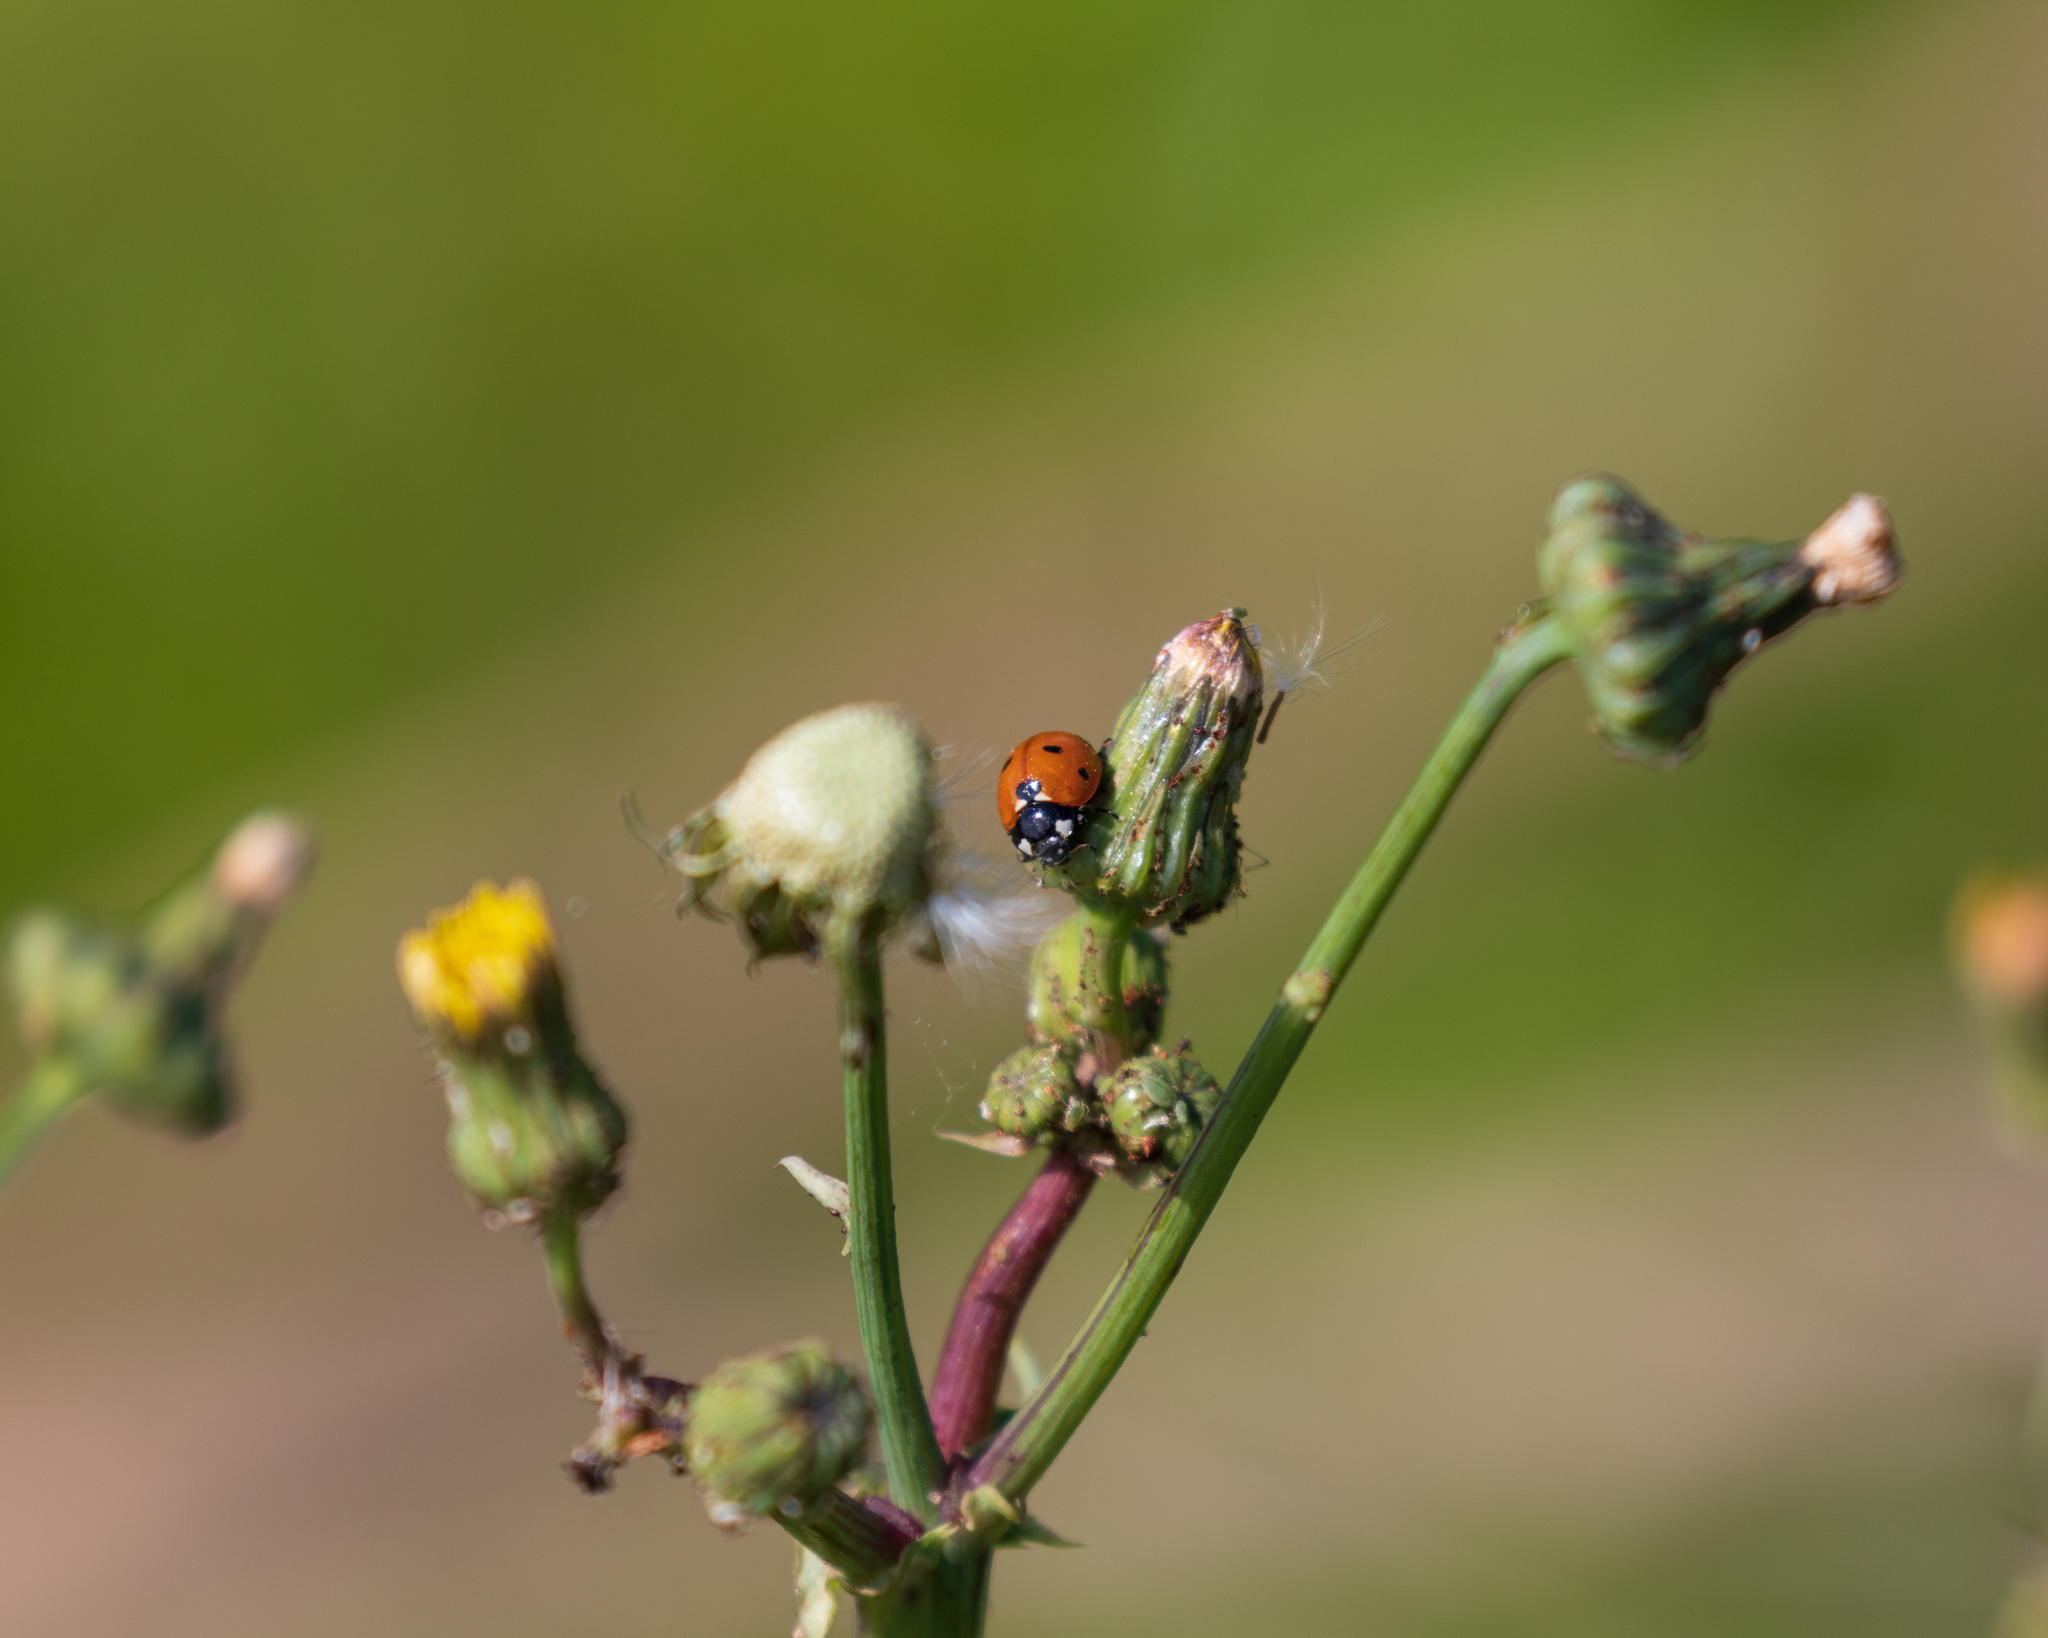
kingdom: Animalia
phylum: Arthropoda
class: Insecta
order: Coleoptera
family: Coccinellidae
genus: Coccinella
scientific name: Coccinella septempunctata
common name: Sevenspotted lady beetle
